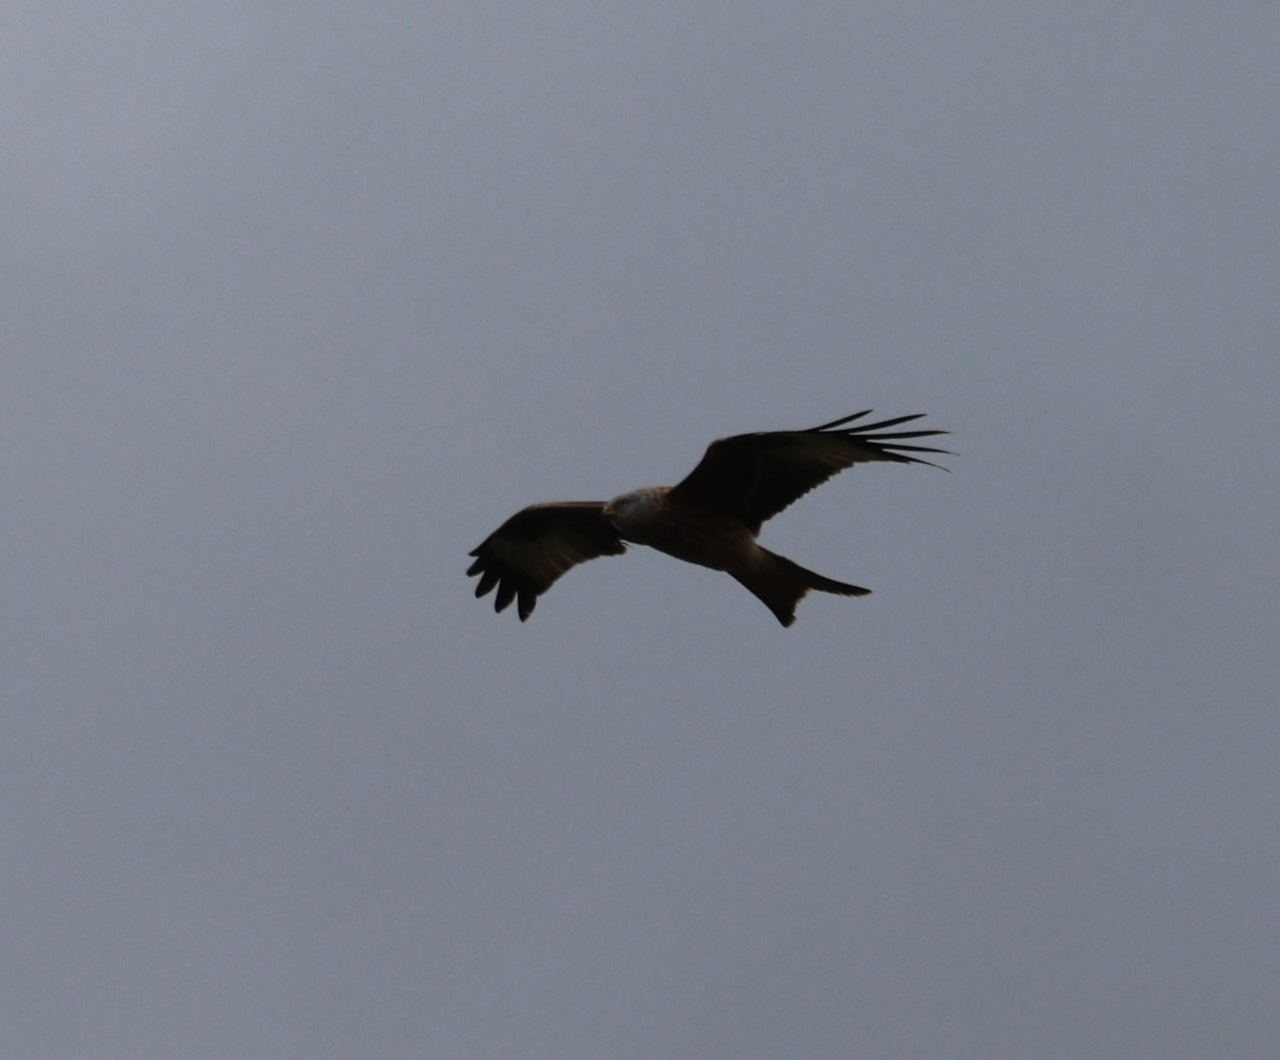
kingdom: Animalia
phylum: Chordata
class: Aves
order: Accipitriformes
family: Accipitridae
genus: Milvus
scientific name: Milvus milvus
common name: Red kite
